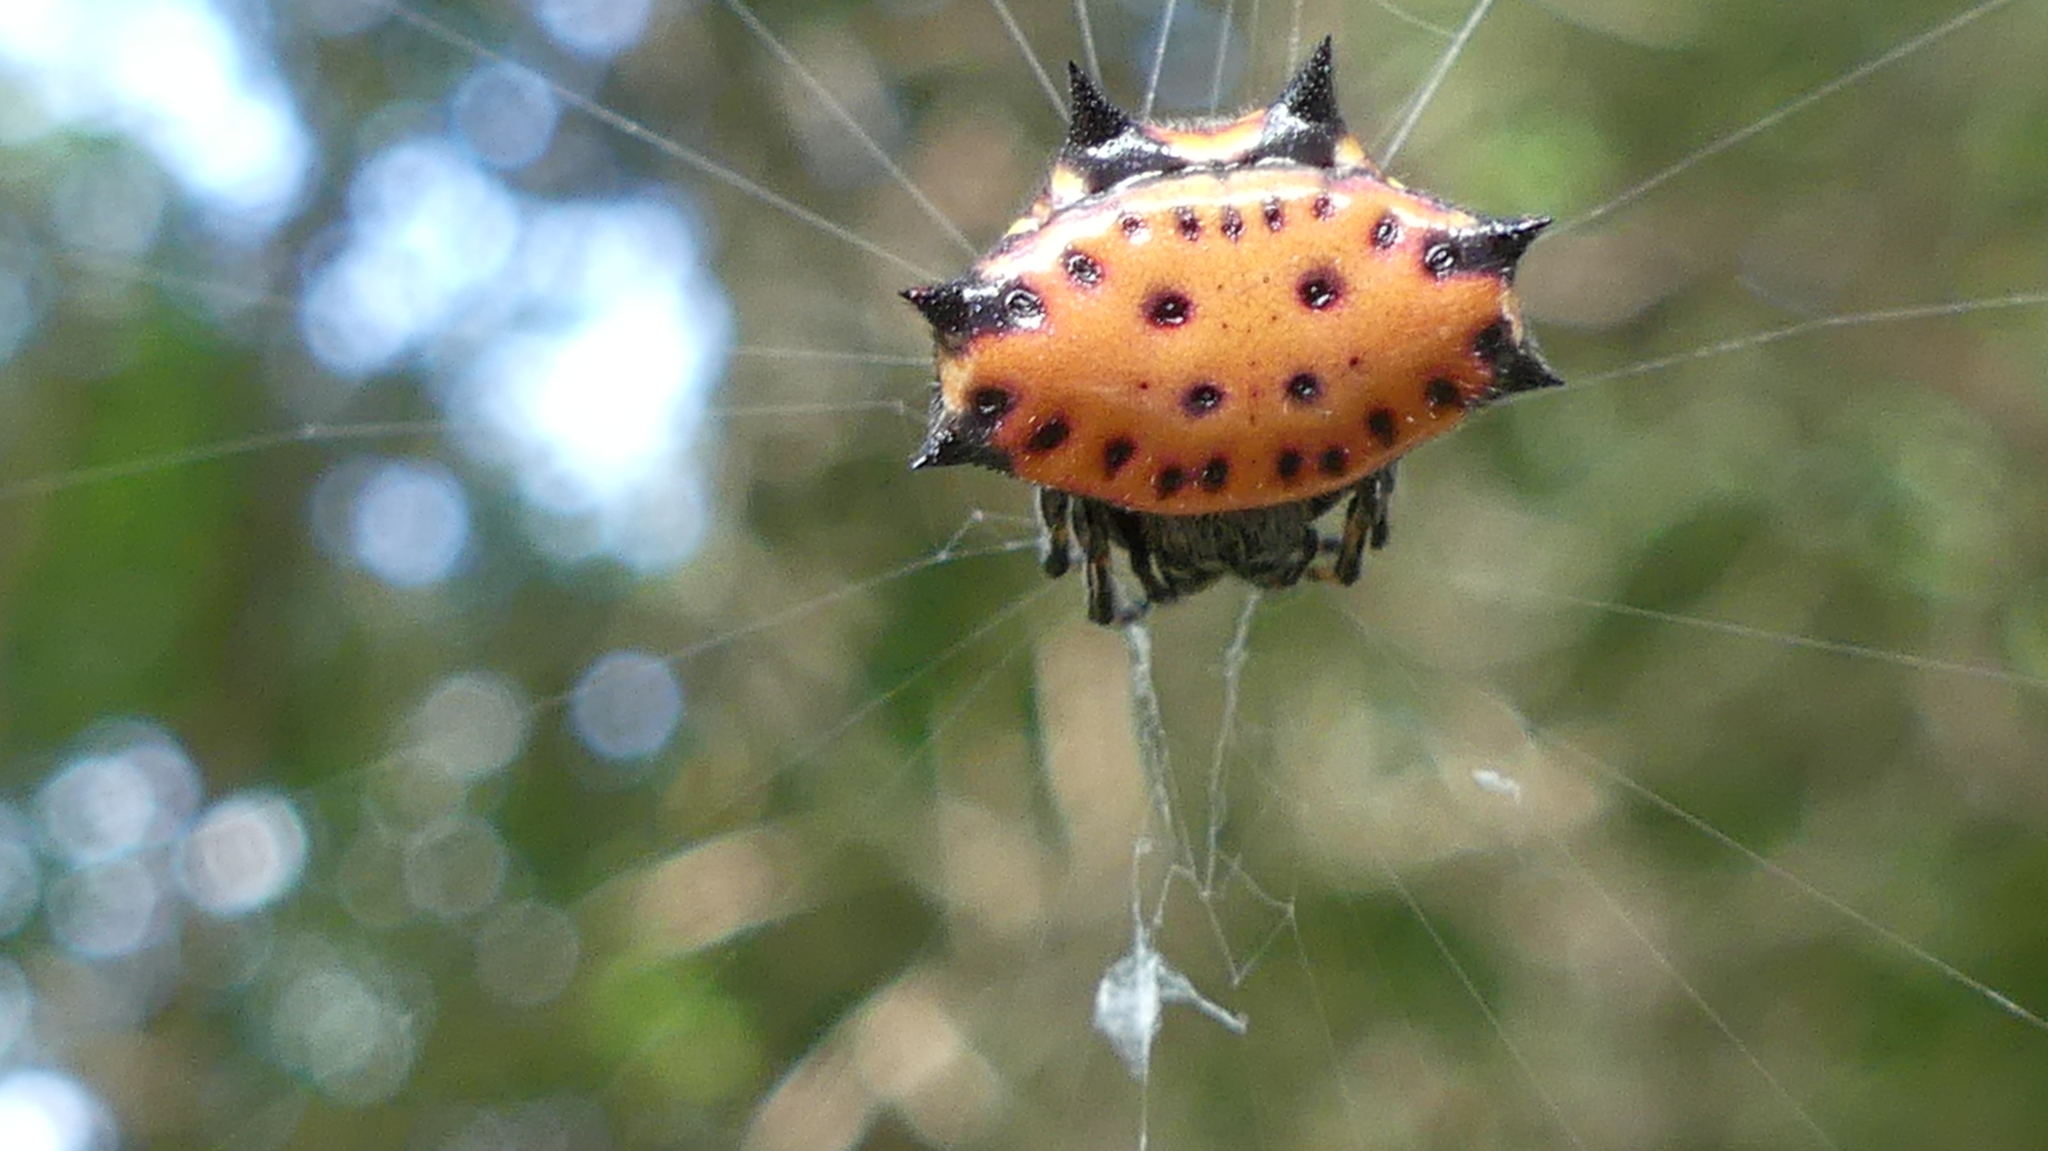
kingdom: Animalia
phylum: Arthropoda
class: Arachnida
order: Araneae
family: Araneidae
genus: Gasteracantha
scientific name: Gasteracantha cancriformis
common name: Orb weavers
